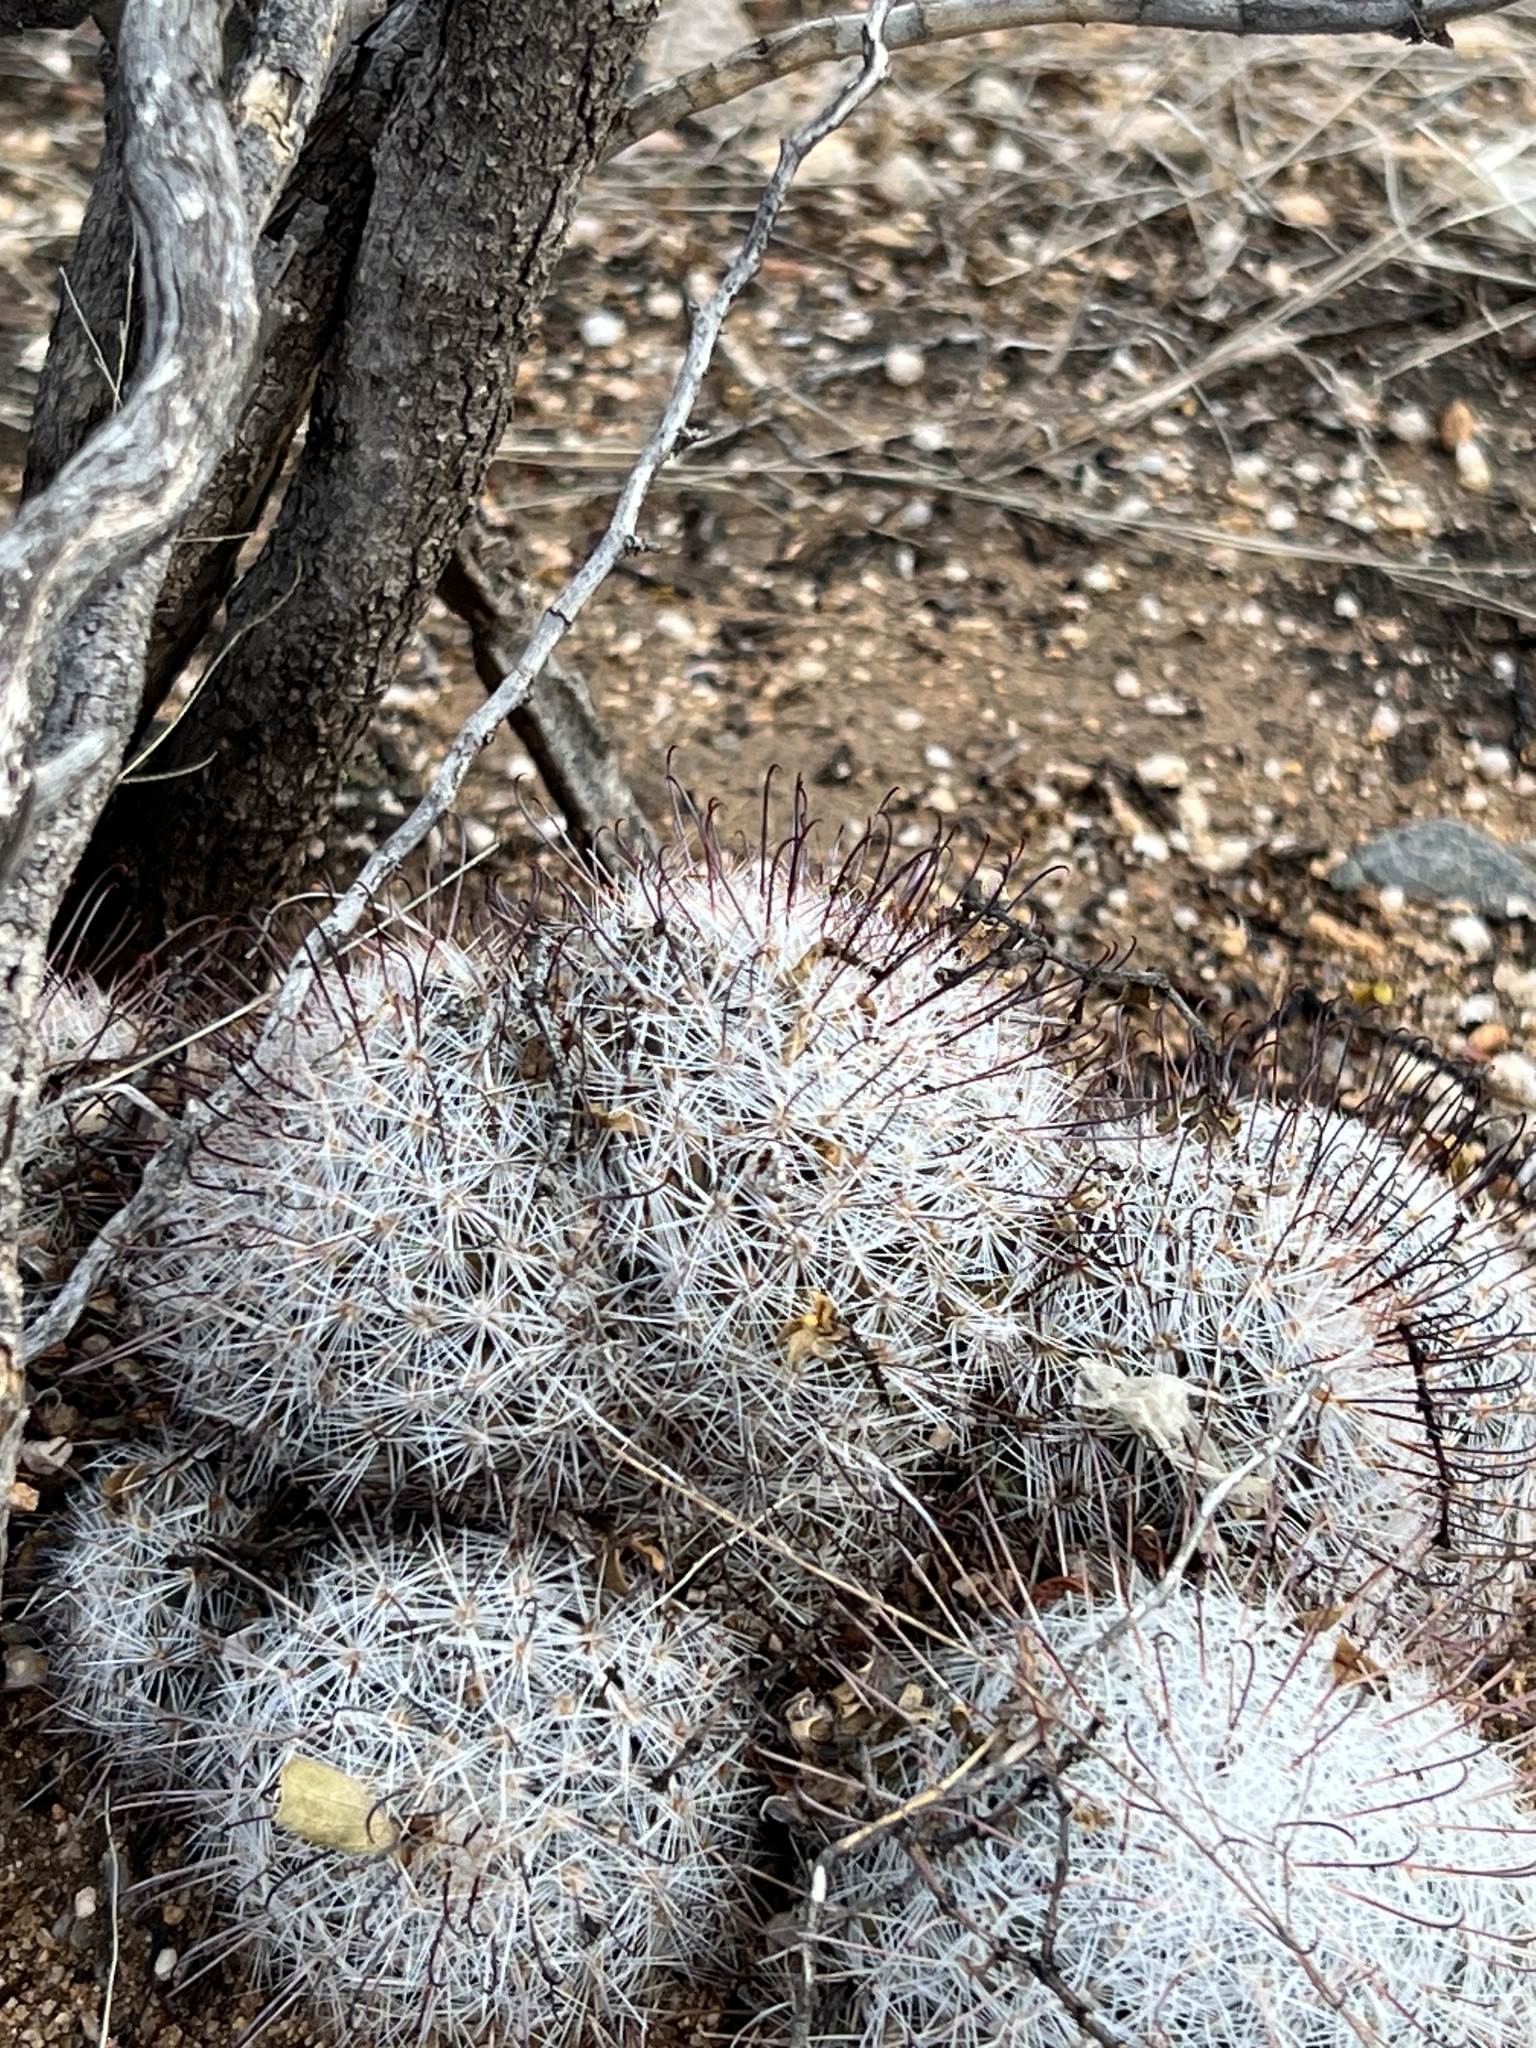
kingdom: Plantae
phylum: Tracheophyta
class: Magnoliopsida
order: Caryophyllales
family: Cactaceae
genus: Cochemiea
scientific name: Cochemiea grahamii
